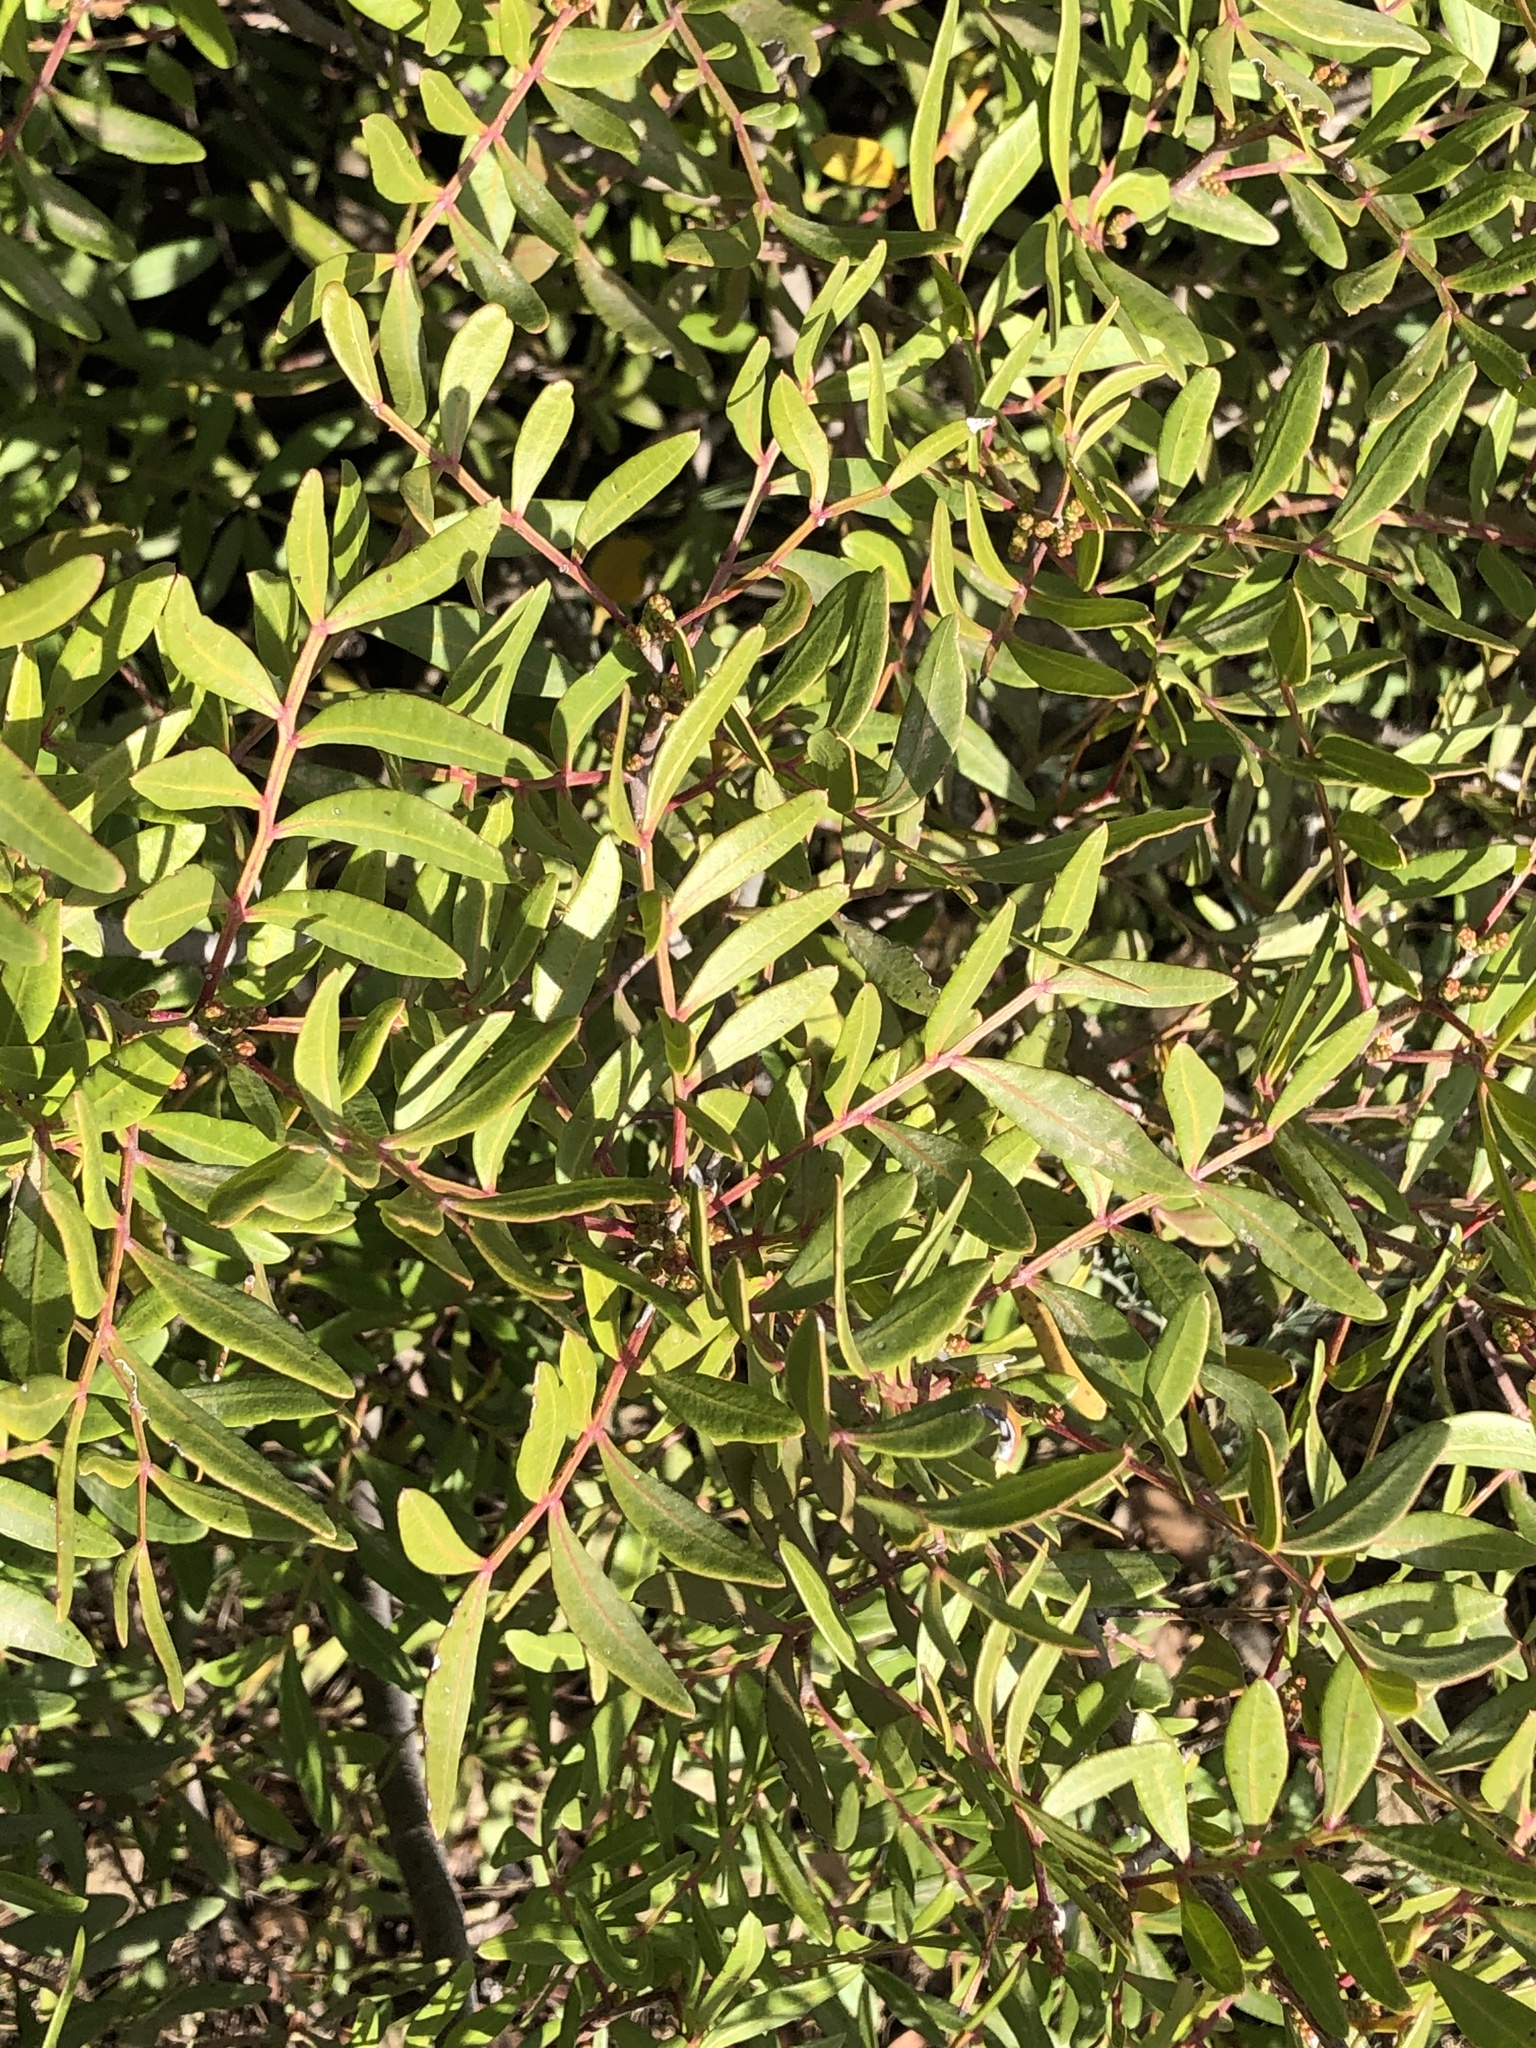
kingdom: Plantae
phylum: Tracheophyta
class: Magnoliopsida
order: Sapindales
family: Anacardiaceae
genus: Pistacia
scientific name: Pistacia lentiscus
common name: Lentisk
